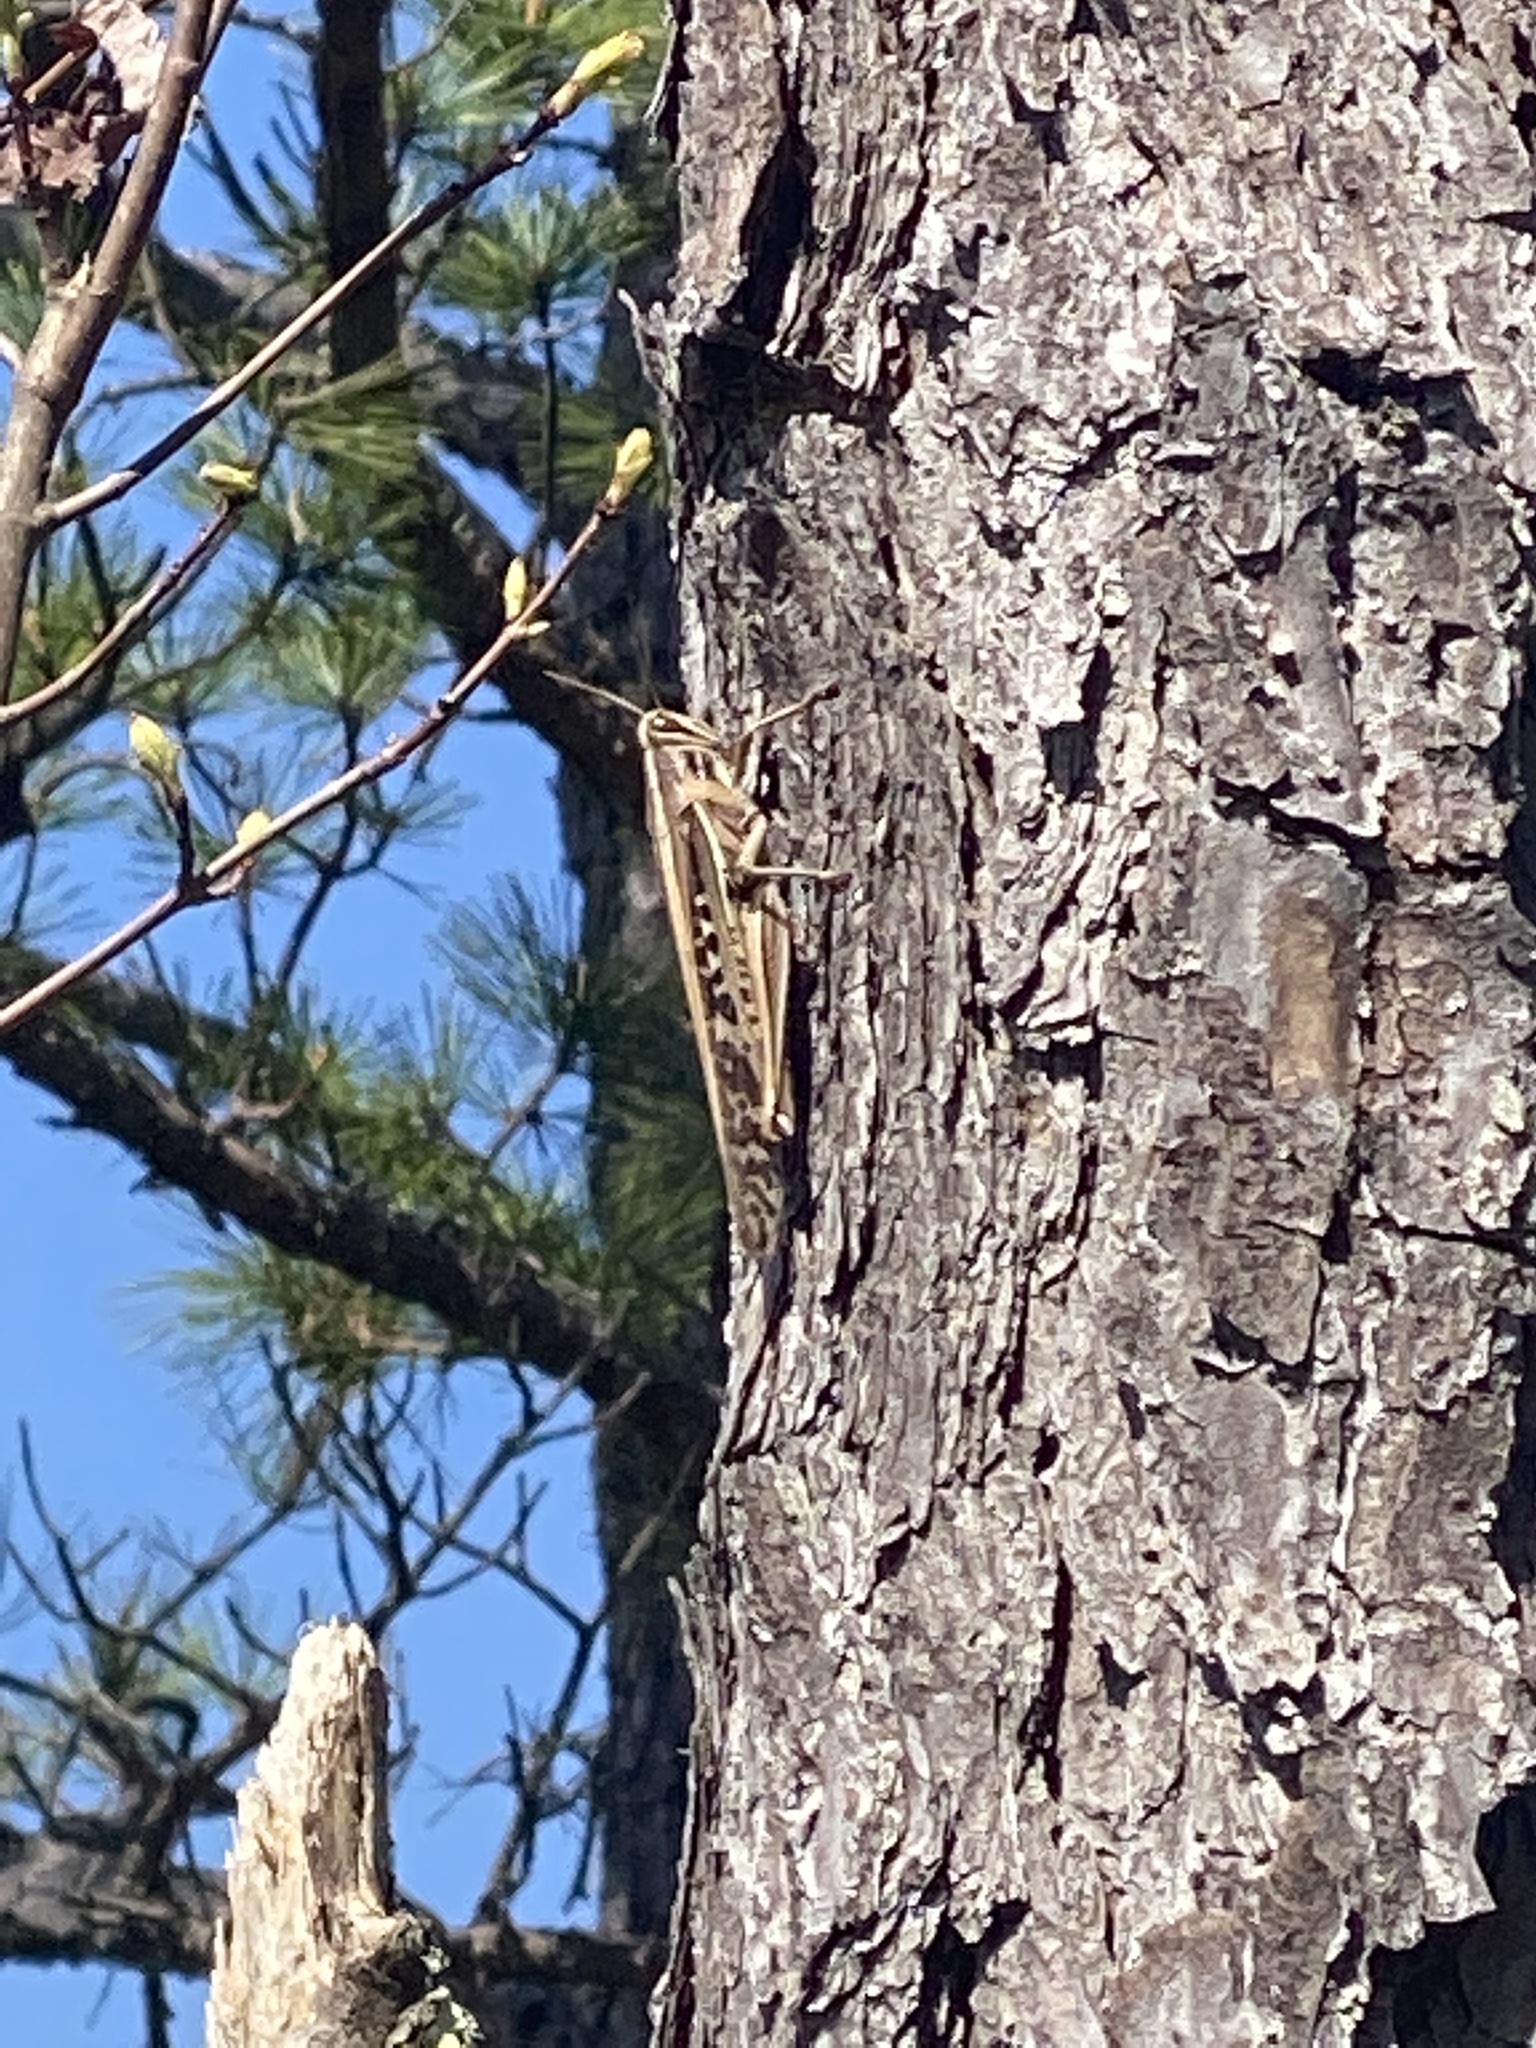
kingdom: Animalia
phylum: Arthropoda
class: Insecta
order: Orthoptera
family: Acrididae
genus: Schistocerca
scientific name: Schistocerca americana
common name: American bird locust
